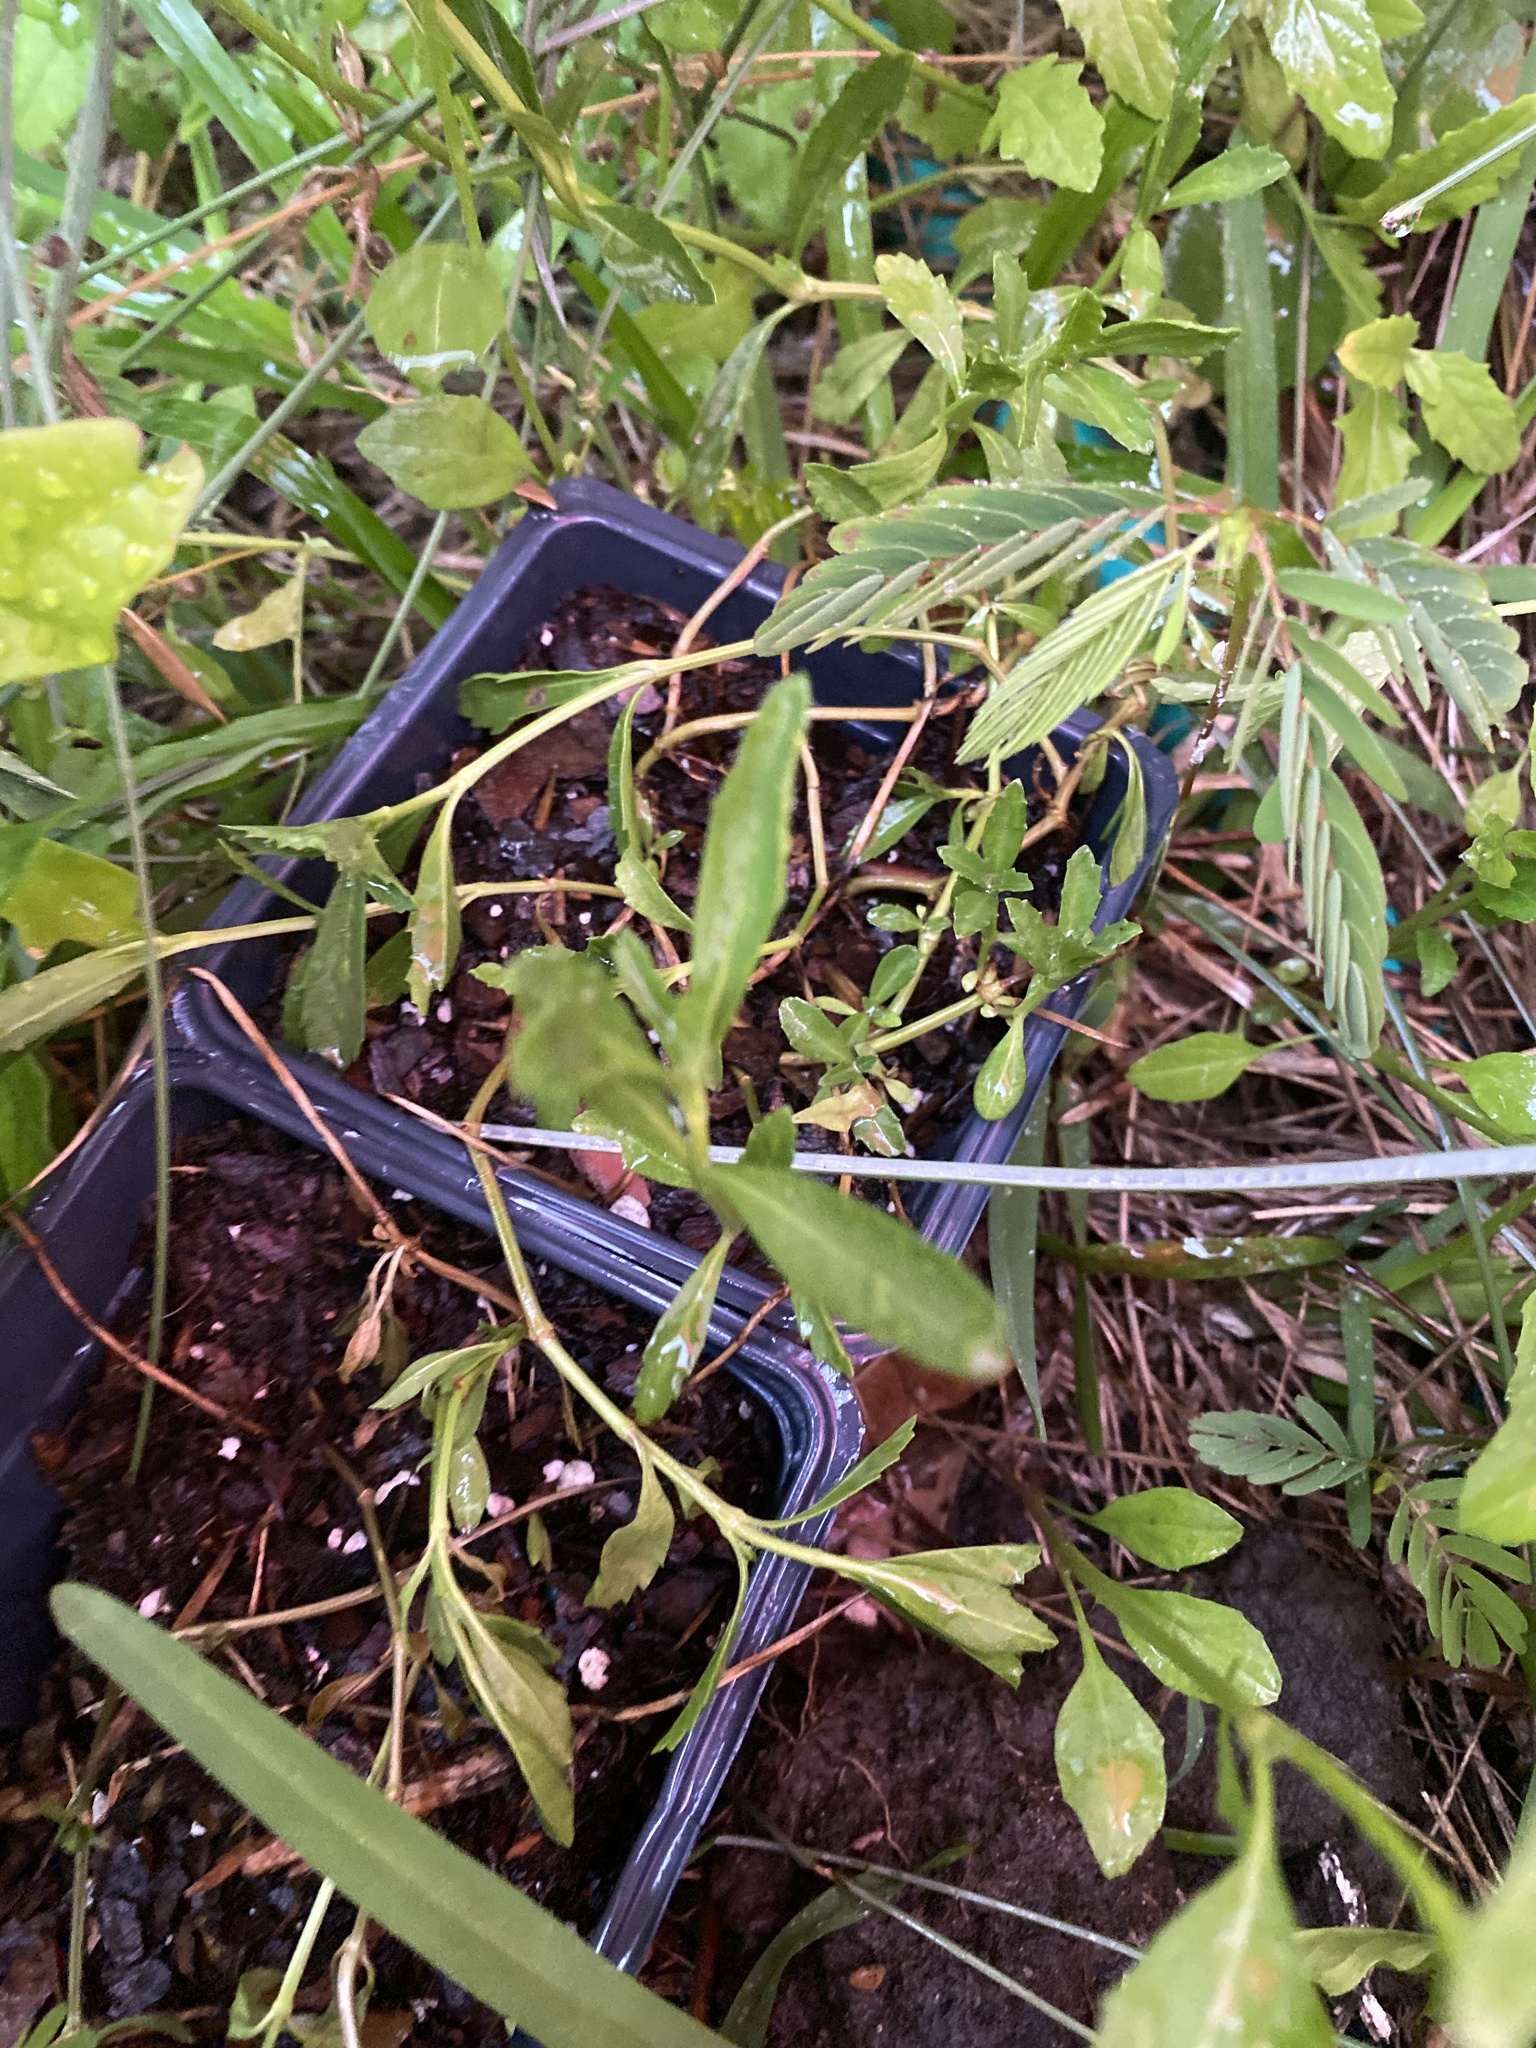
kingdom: Plantae
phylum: Tracheophyta
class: Magnoliopsida
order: Lamiales
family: Verbenaceae
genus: Phyla
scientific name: Phyla nodiflora
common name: Frogfruit
